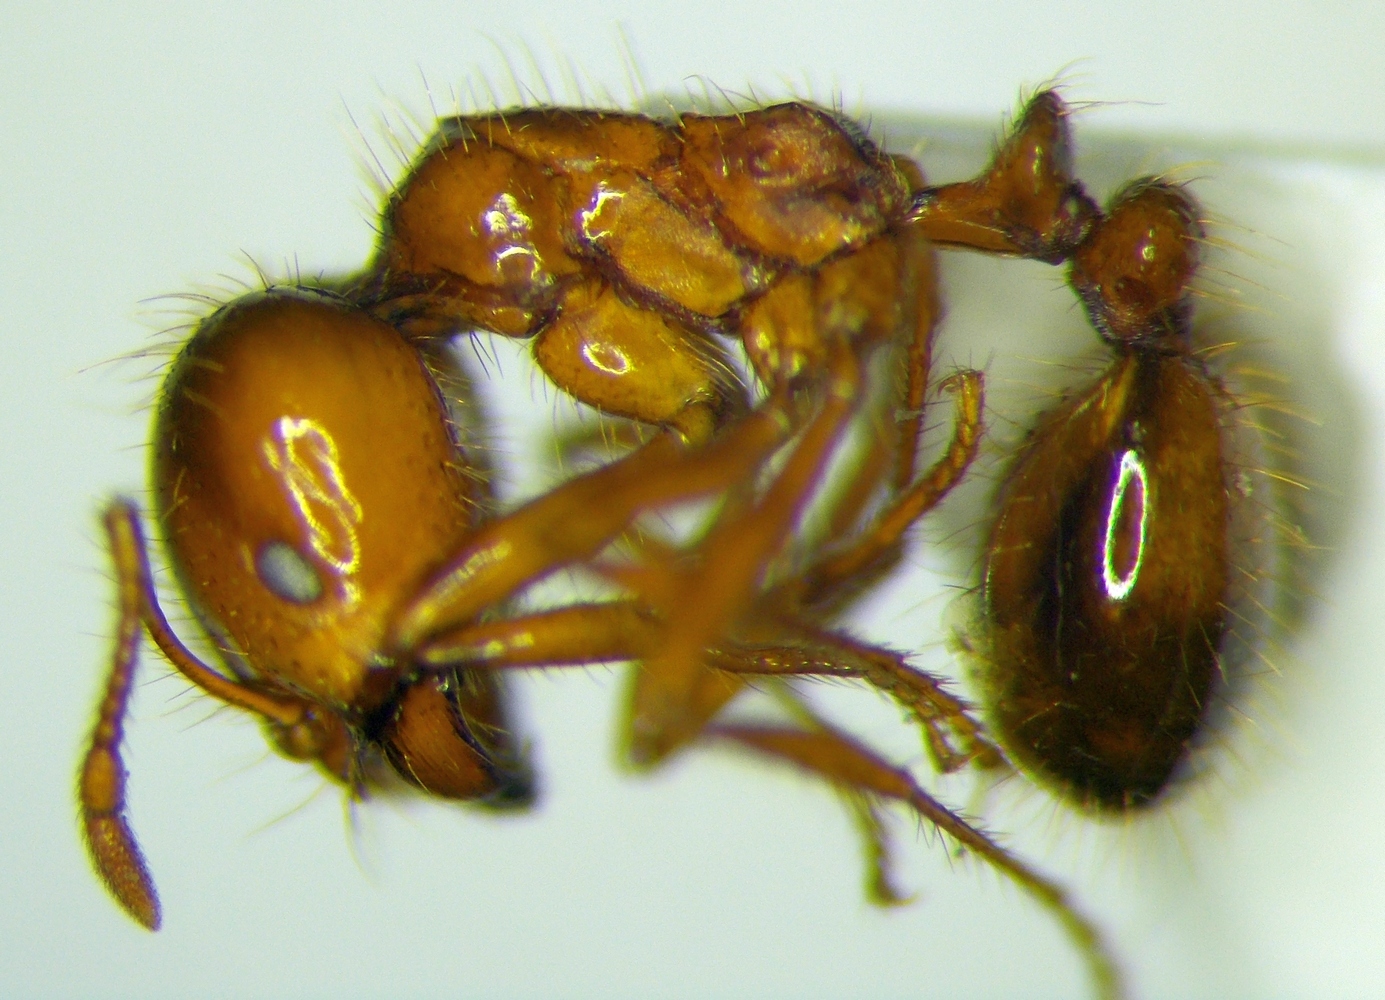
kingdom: Animalia
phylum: Arthropoda
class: Insecta
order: Hymenoptera
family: Formicidae
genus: Solenopsis
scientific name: Solenopsis geminata
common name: Tropical fire ant
